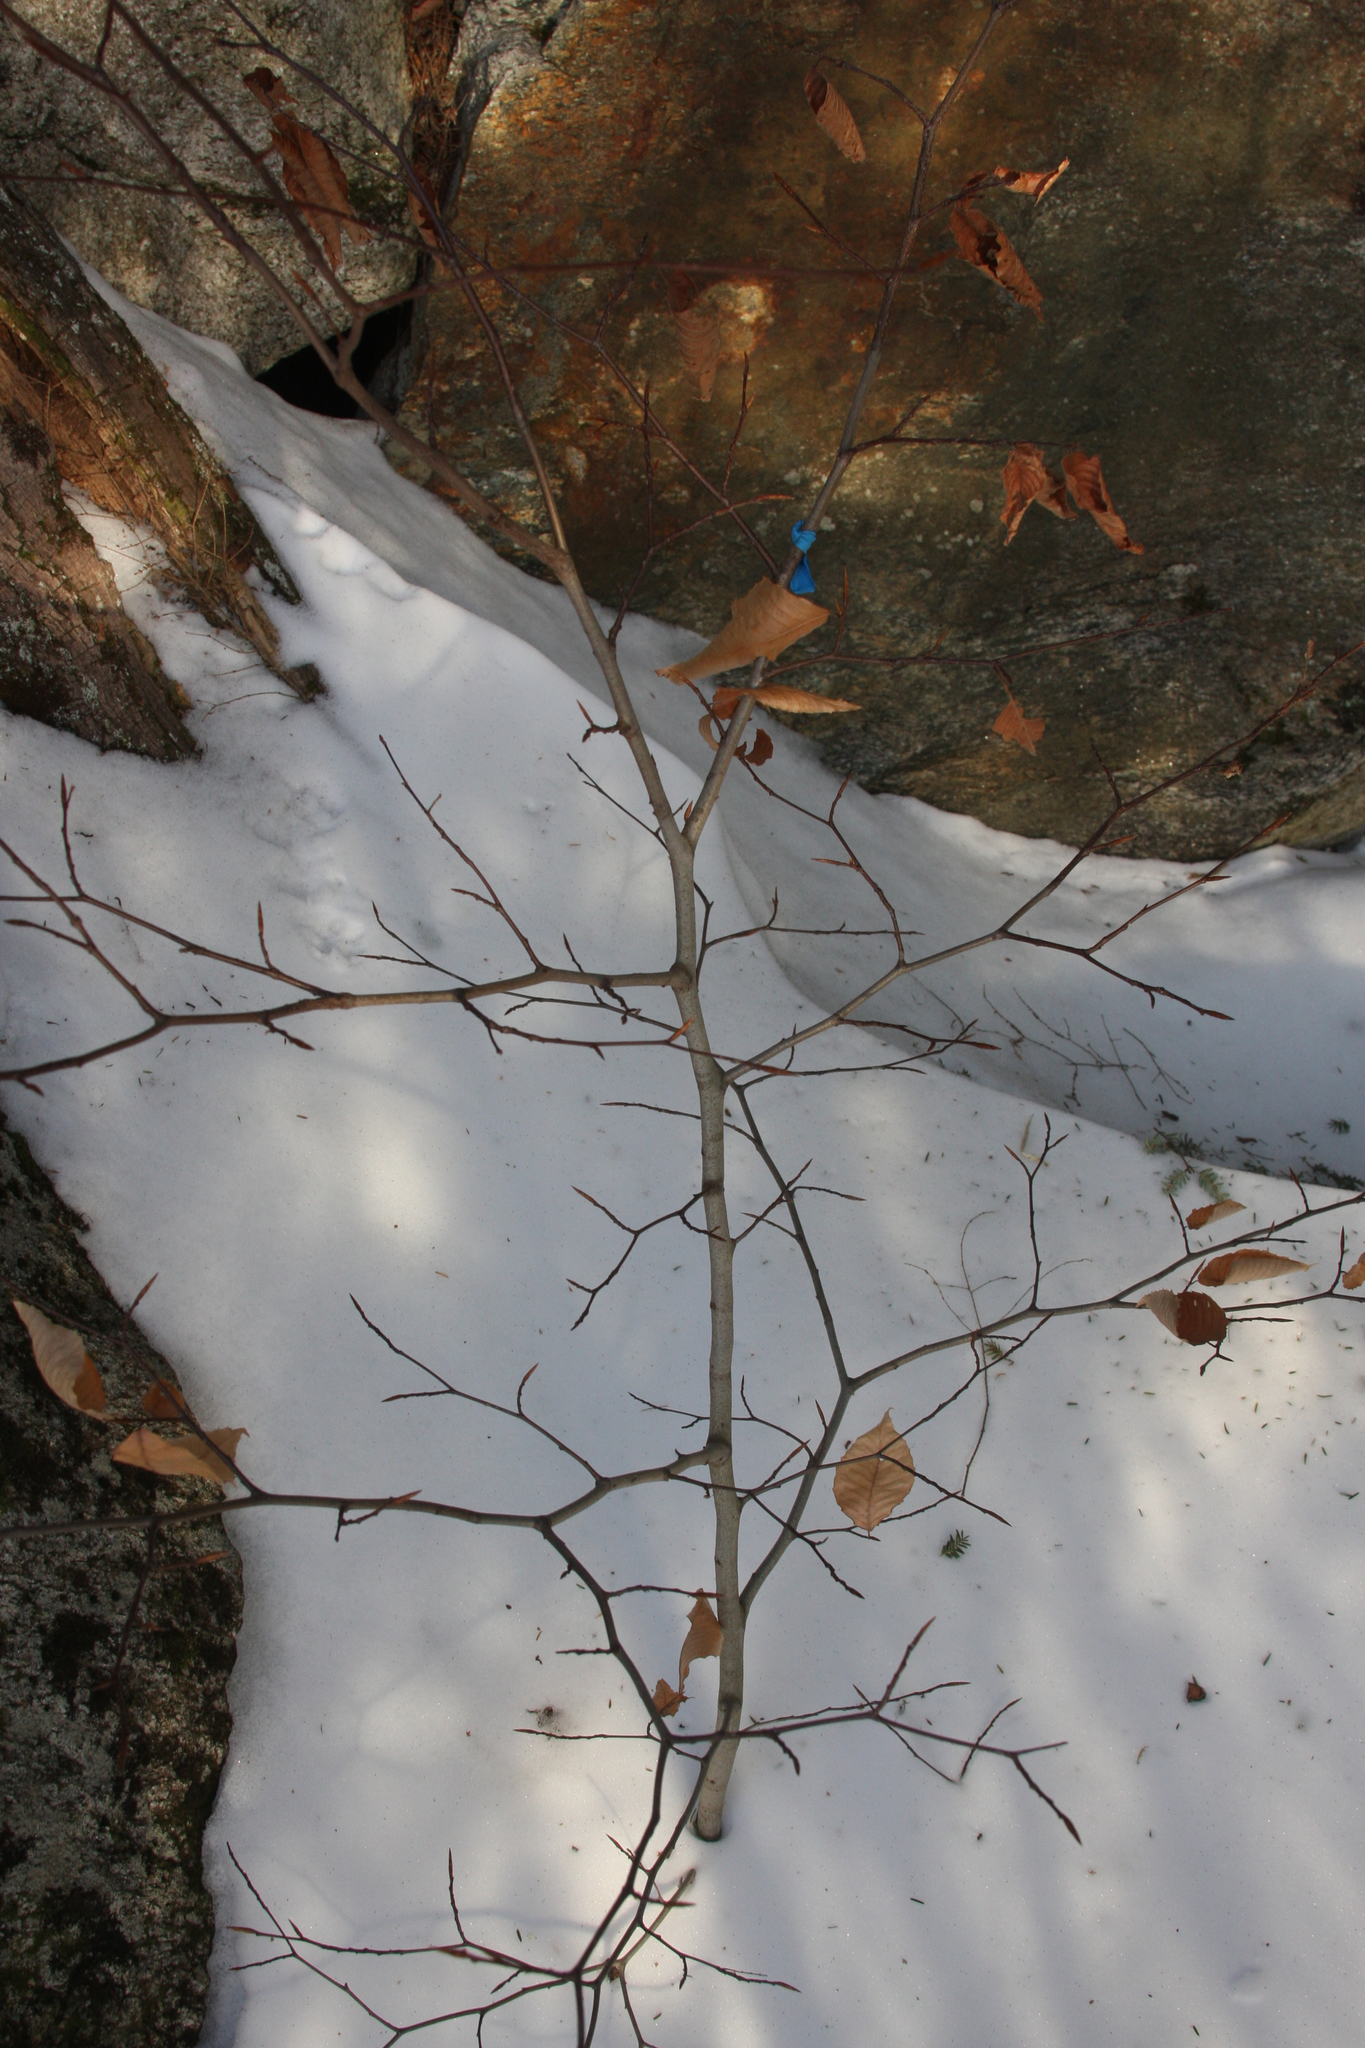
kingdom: Plantae
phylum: Tracheophyta
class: Magnoliopsida
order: Fagales
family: Fagaceae
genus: Fagus
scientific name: Fagus grandifolia
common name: American beech
